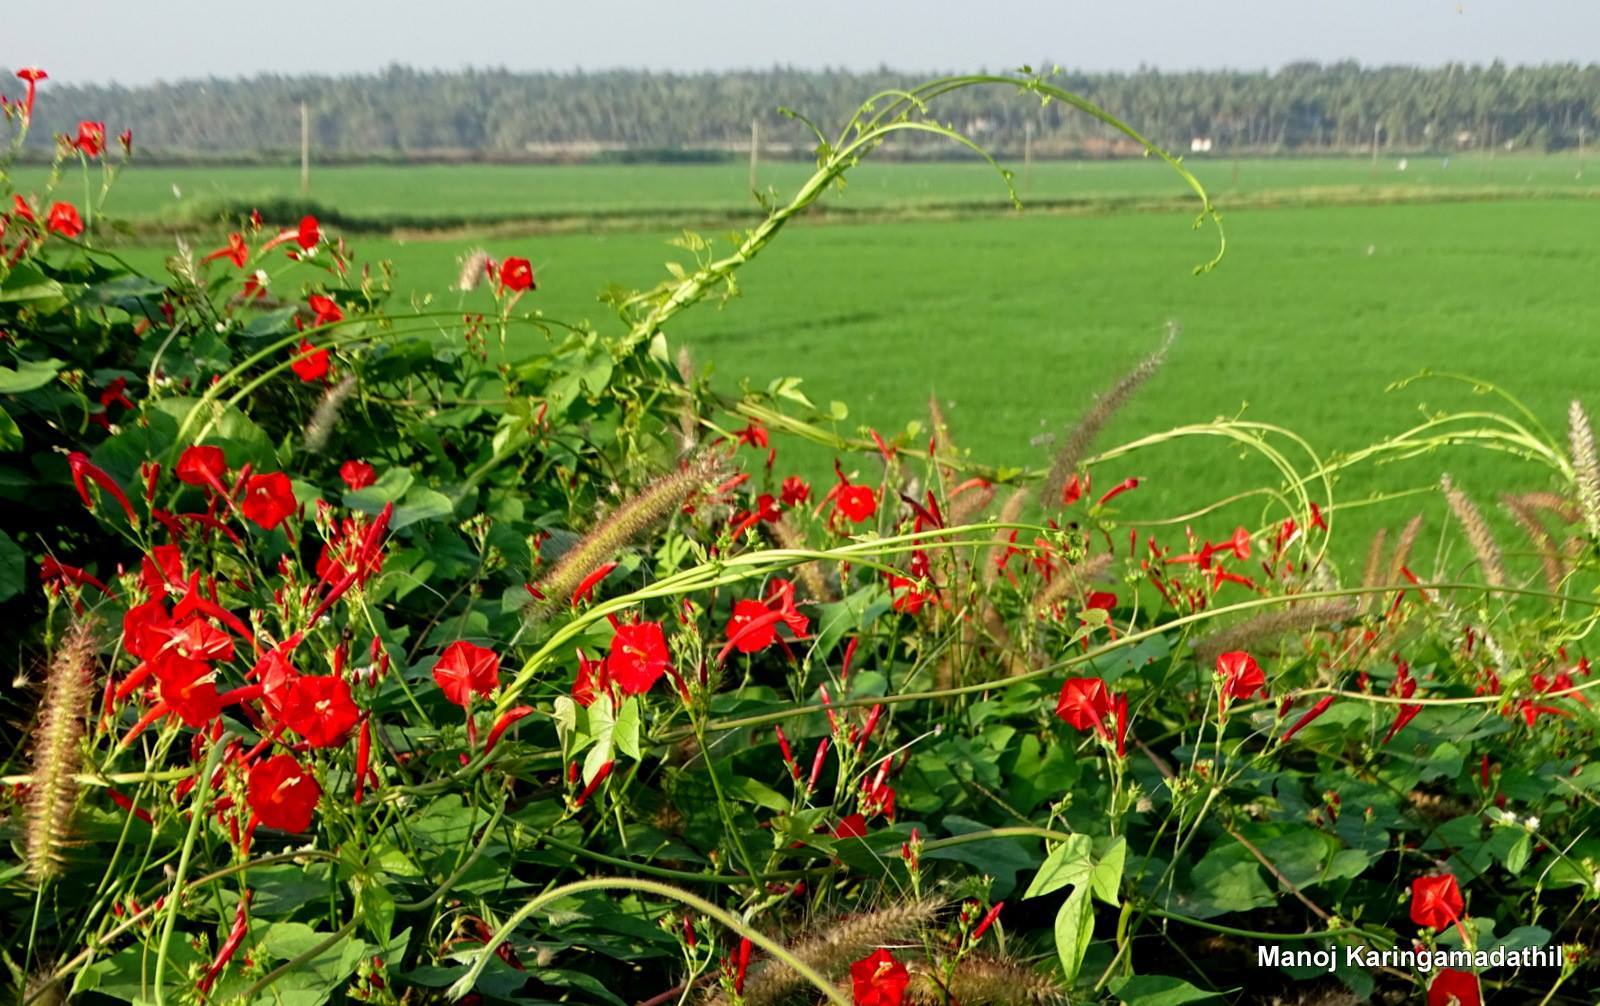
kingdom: Plantae
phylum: Tracheophyta
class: Magnoliopsida
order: Solanales
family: Convolvulaceae
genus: Ipomoea
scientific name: Ipomoea coccinea
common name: Red morning-glory
